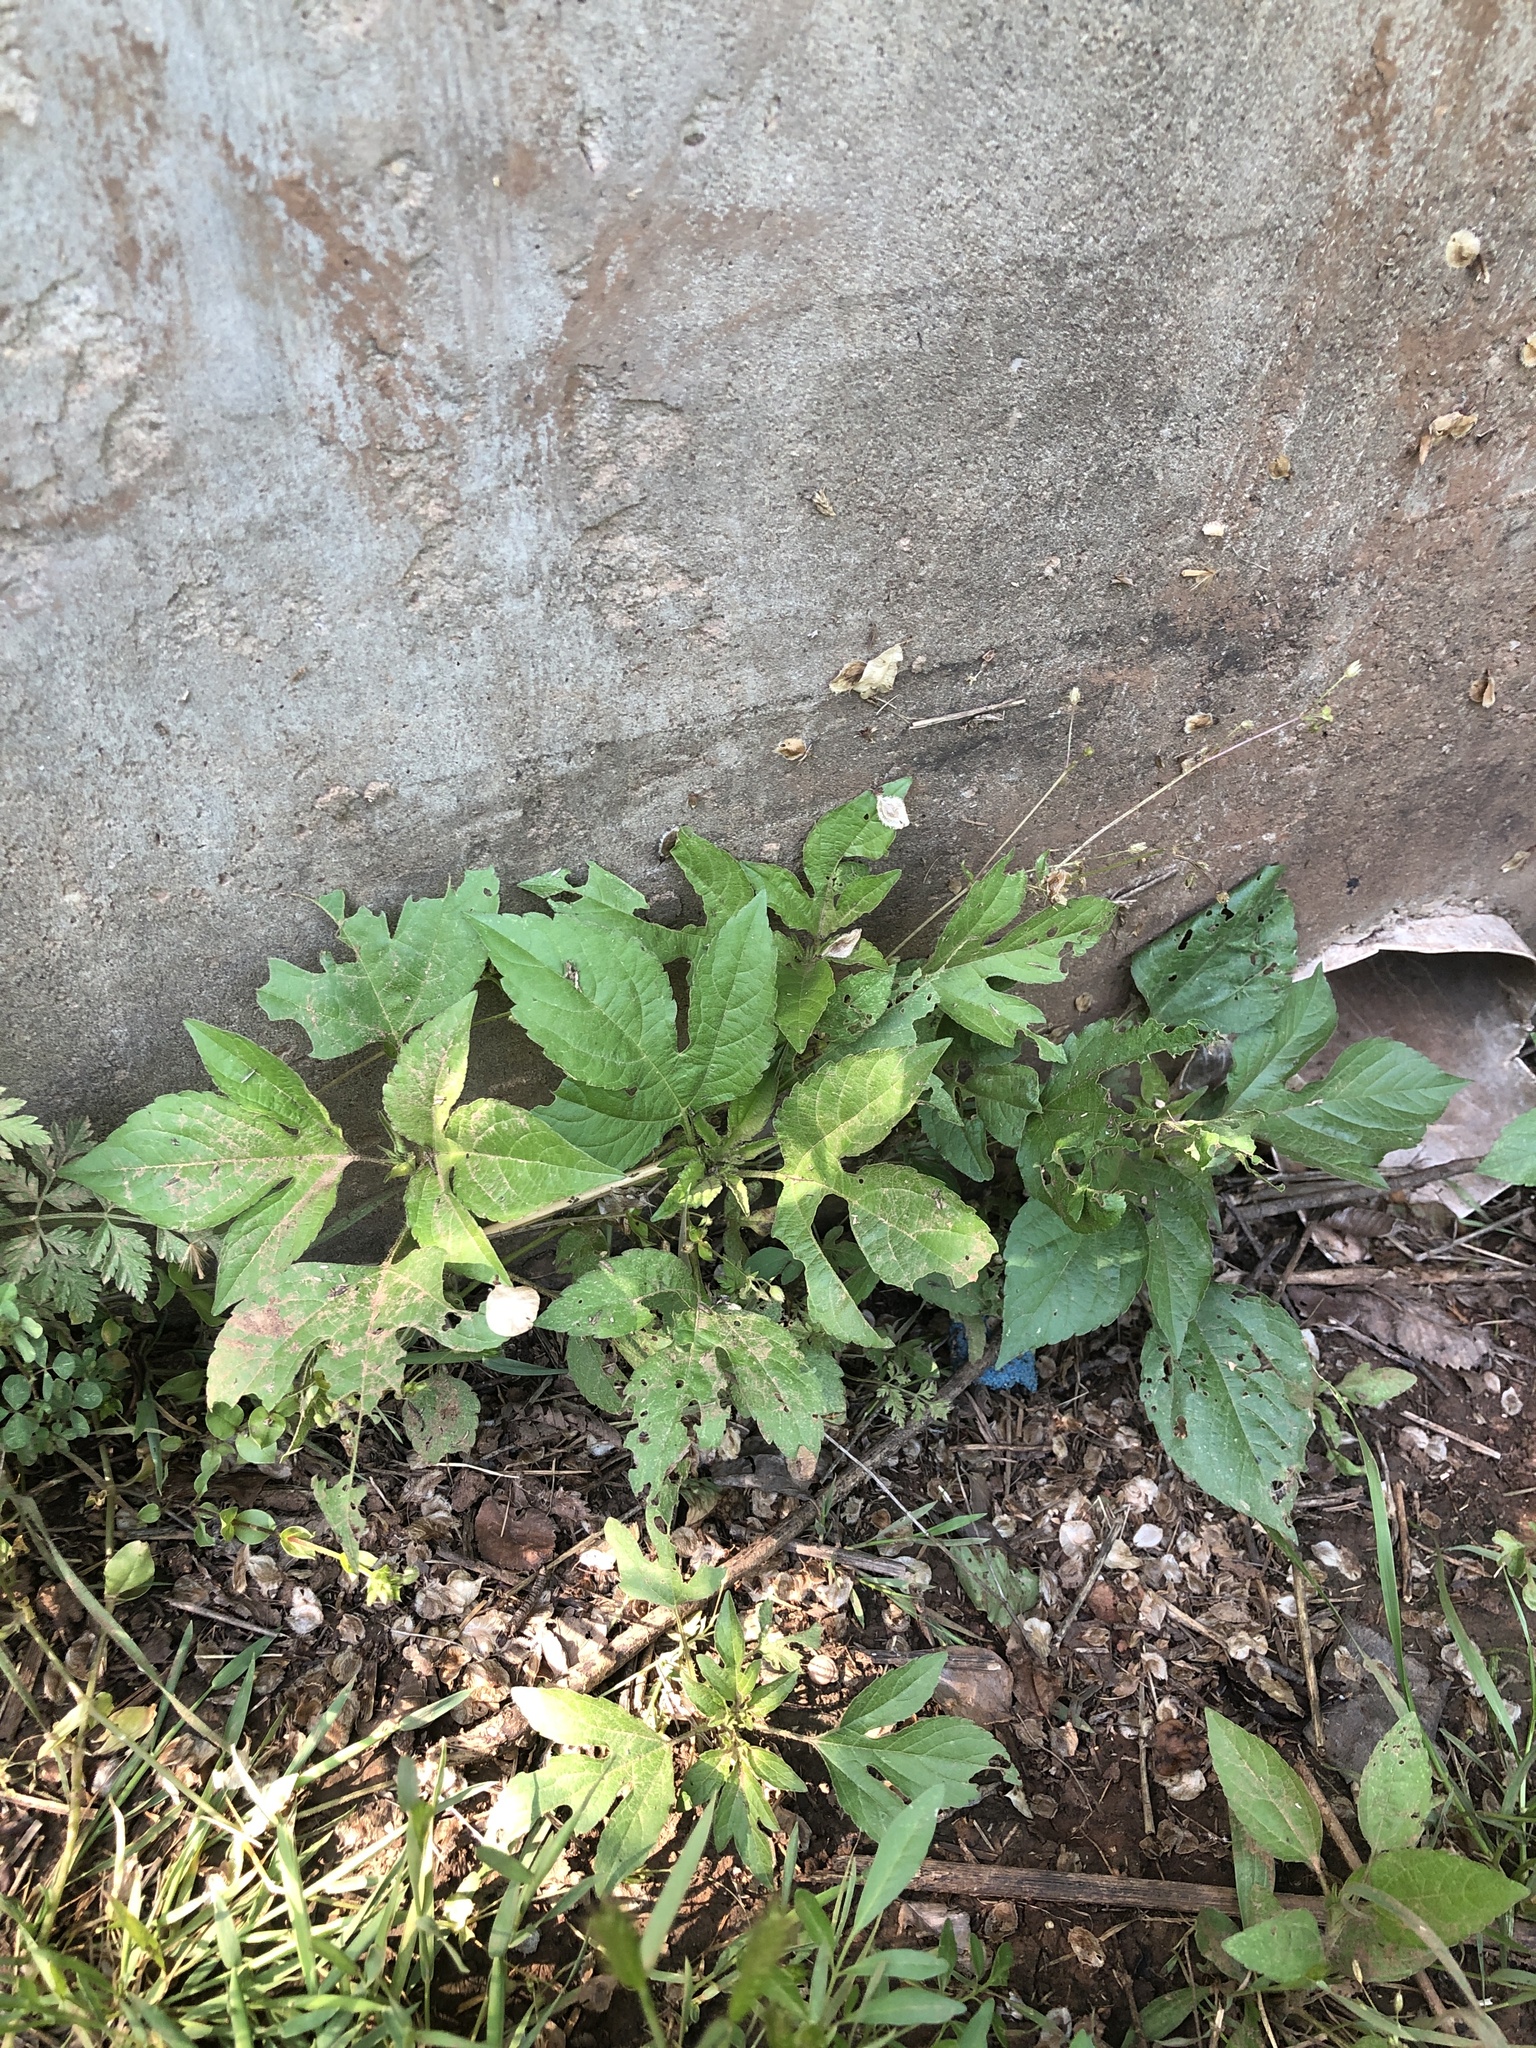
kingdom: Plantae
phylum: Tracheophyta
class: Magnoliopsida
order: Asterales
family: Asteraceae
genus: Ambrosia
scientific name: Ambrosia trifida
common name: Giant ragweed
